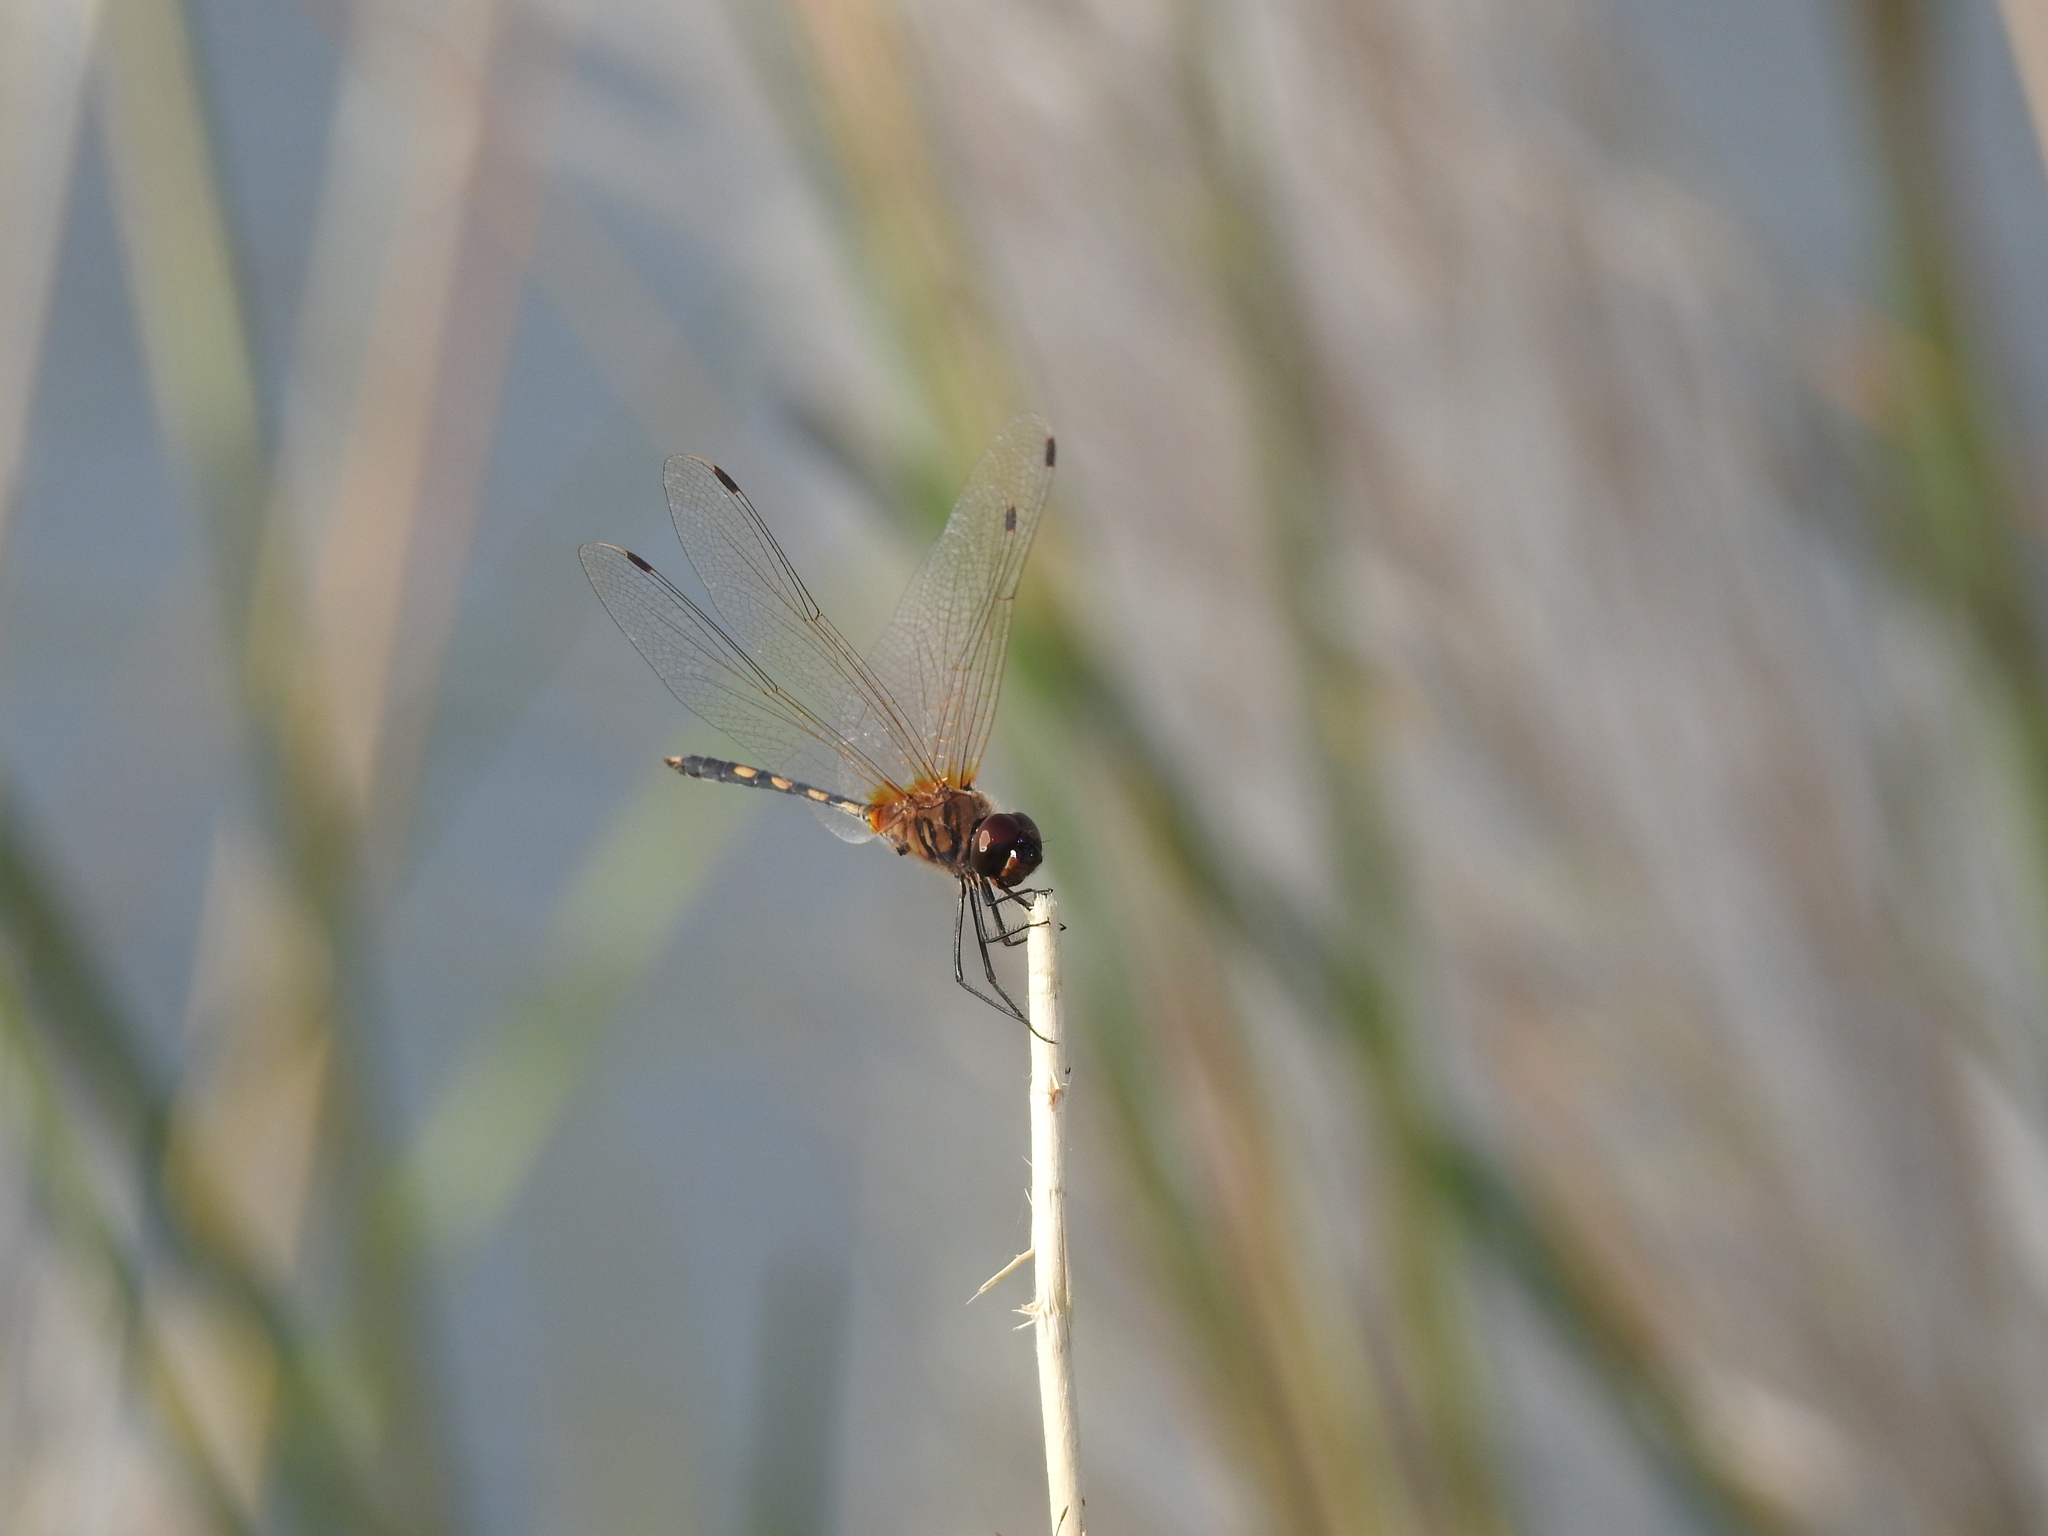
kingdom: Animalia
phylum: Arthropoda
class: Insecta
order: Odonata
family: Libellulidae
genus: Trithemis
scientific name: Trithemis pallidinervis
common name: Dancing dropwing
